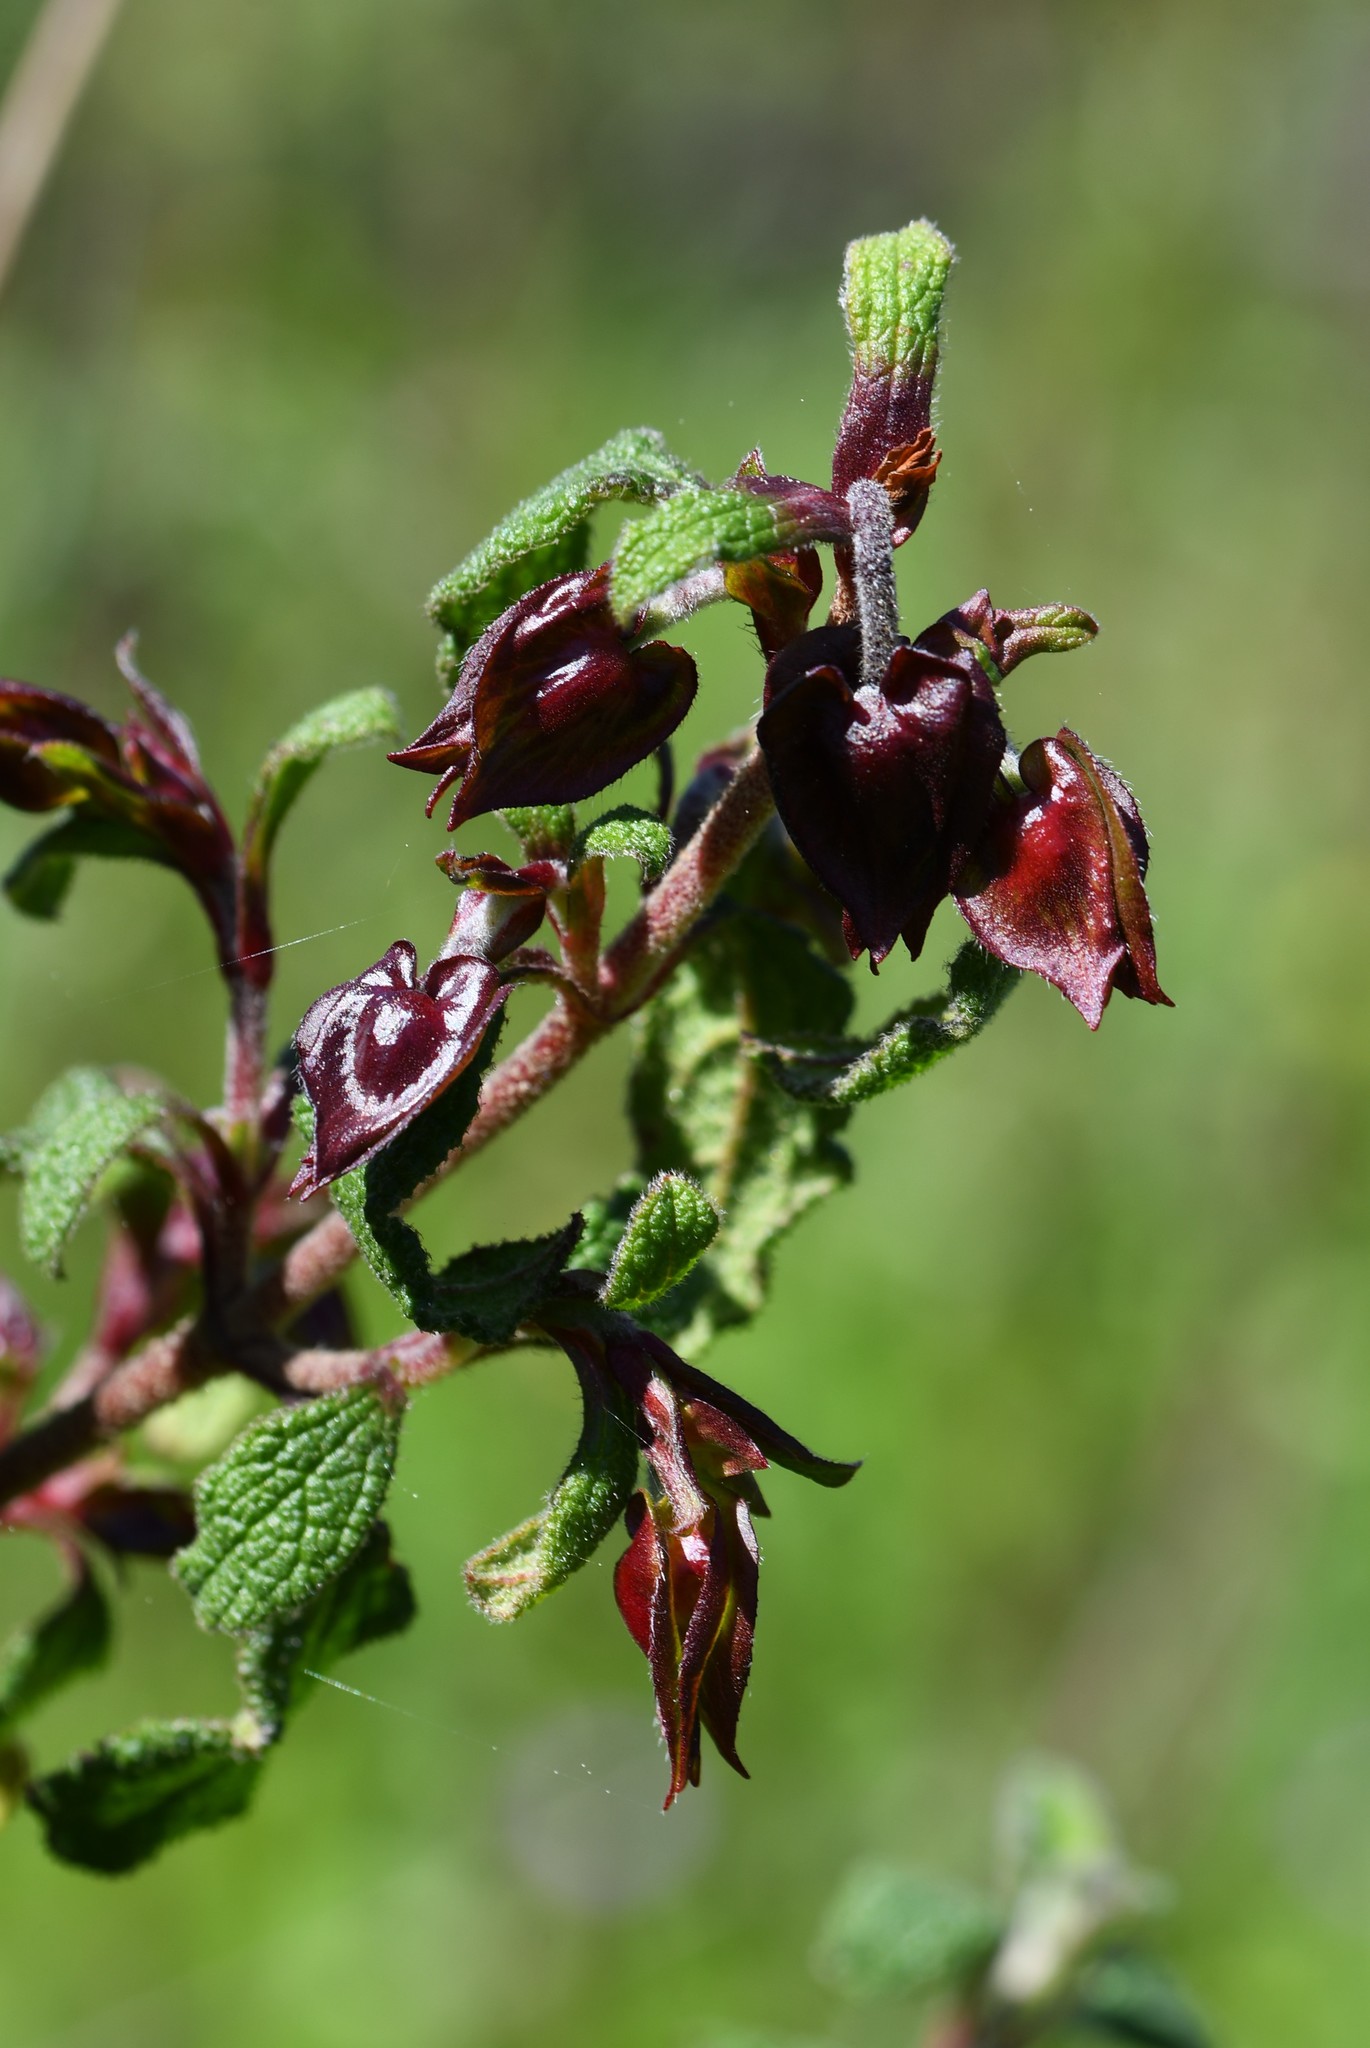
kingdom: Plantae
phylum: Tracheophyta
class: Magnoliopsida
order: Malvales
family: Cistaceae
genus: Cistus
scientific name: Cistus salviifolius
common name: Salvia cistus
